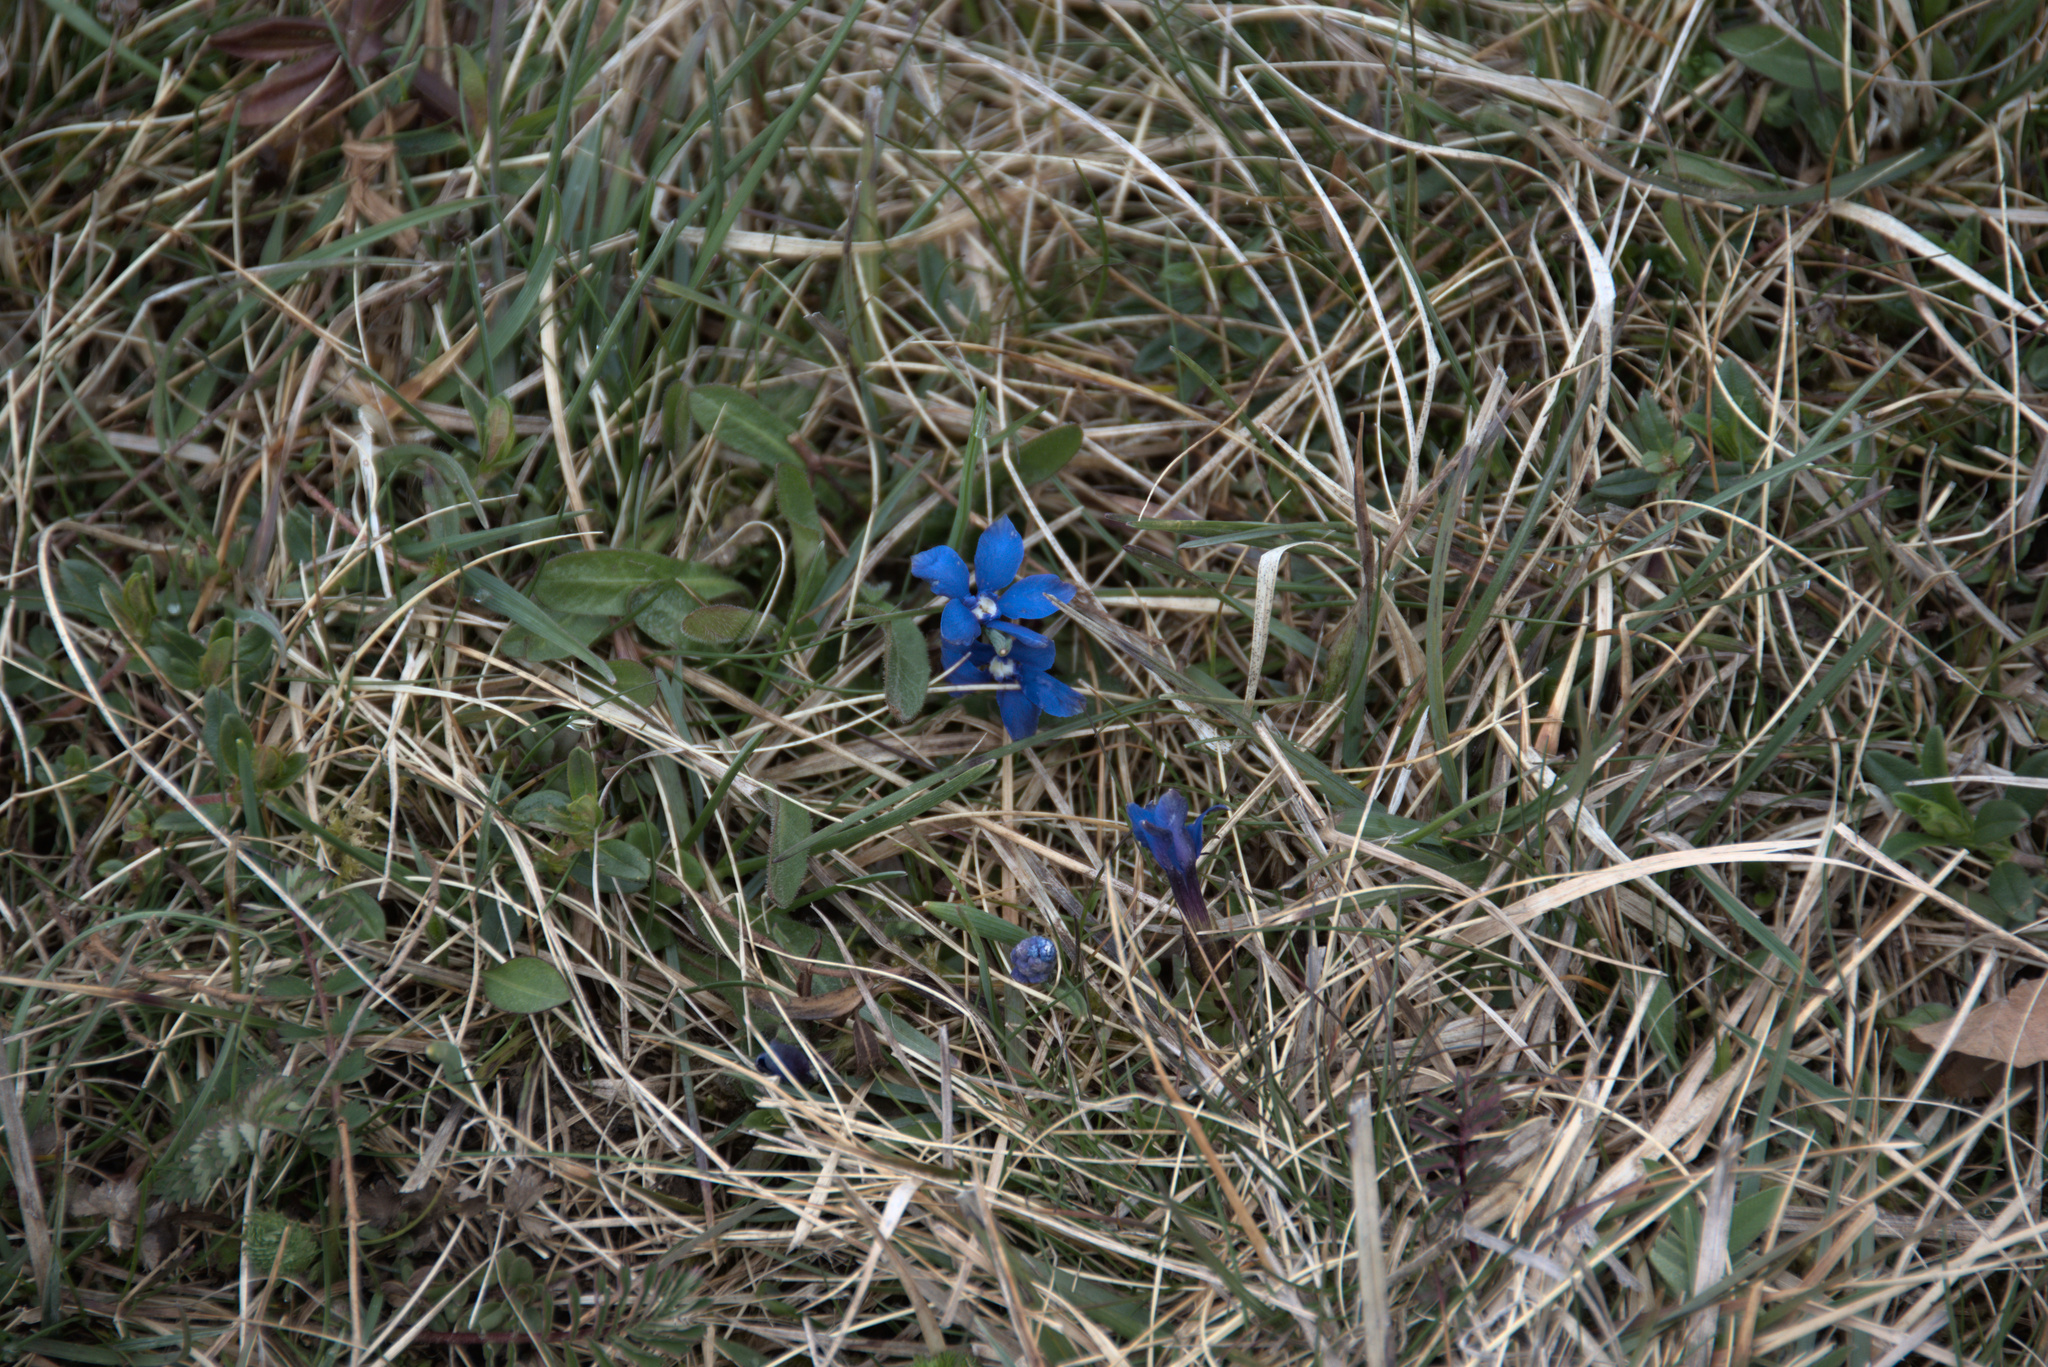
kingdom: Plantae
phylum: Tracheophyta
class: Magnoliopsida
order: Gentianales
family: Gentianaceae
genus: Gentiana
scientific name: Gentiana verna
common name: Spring gentian
